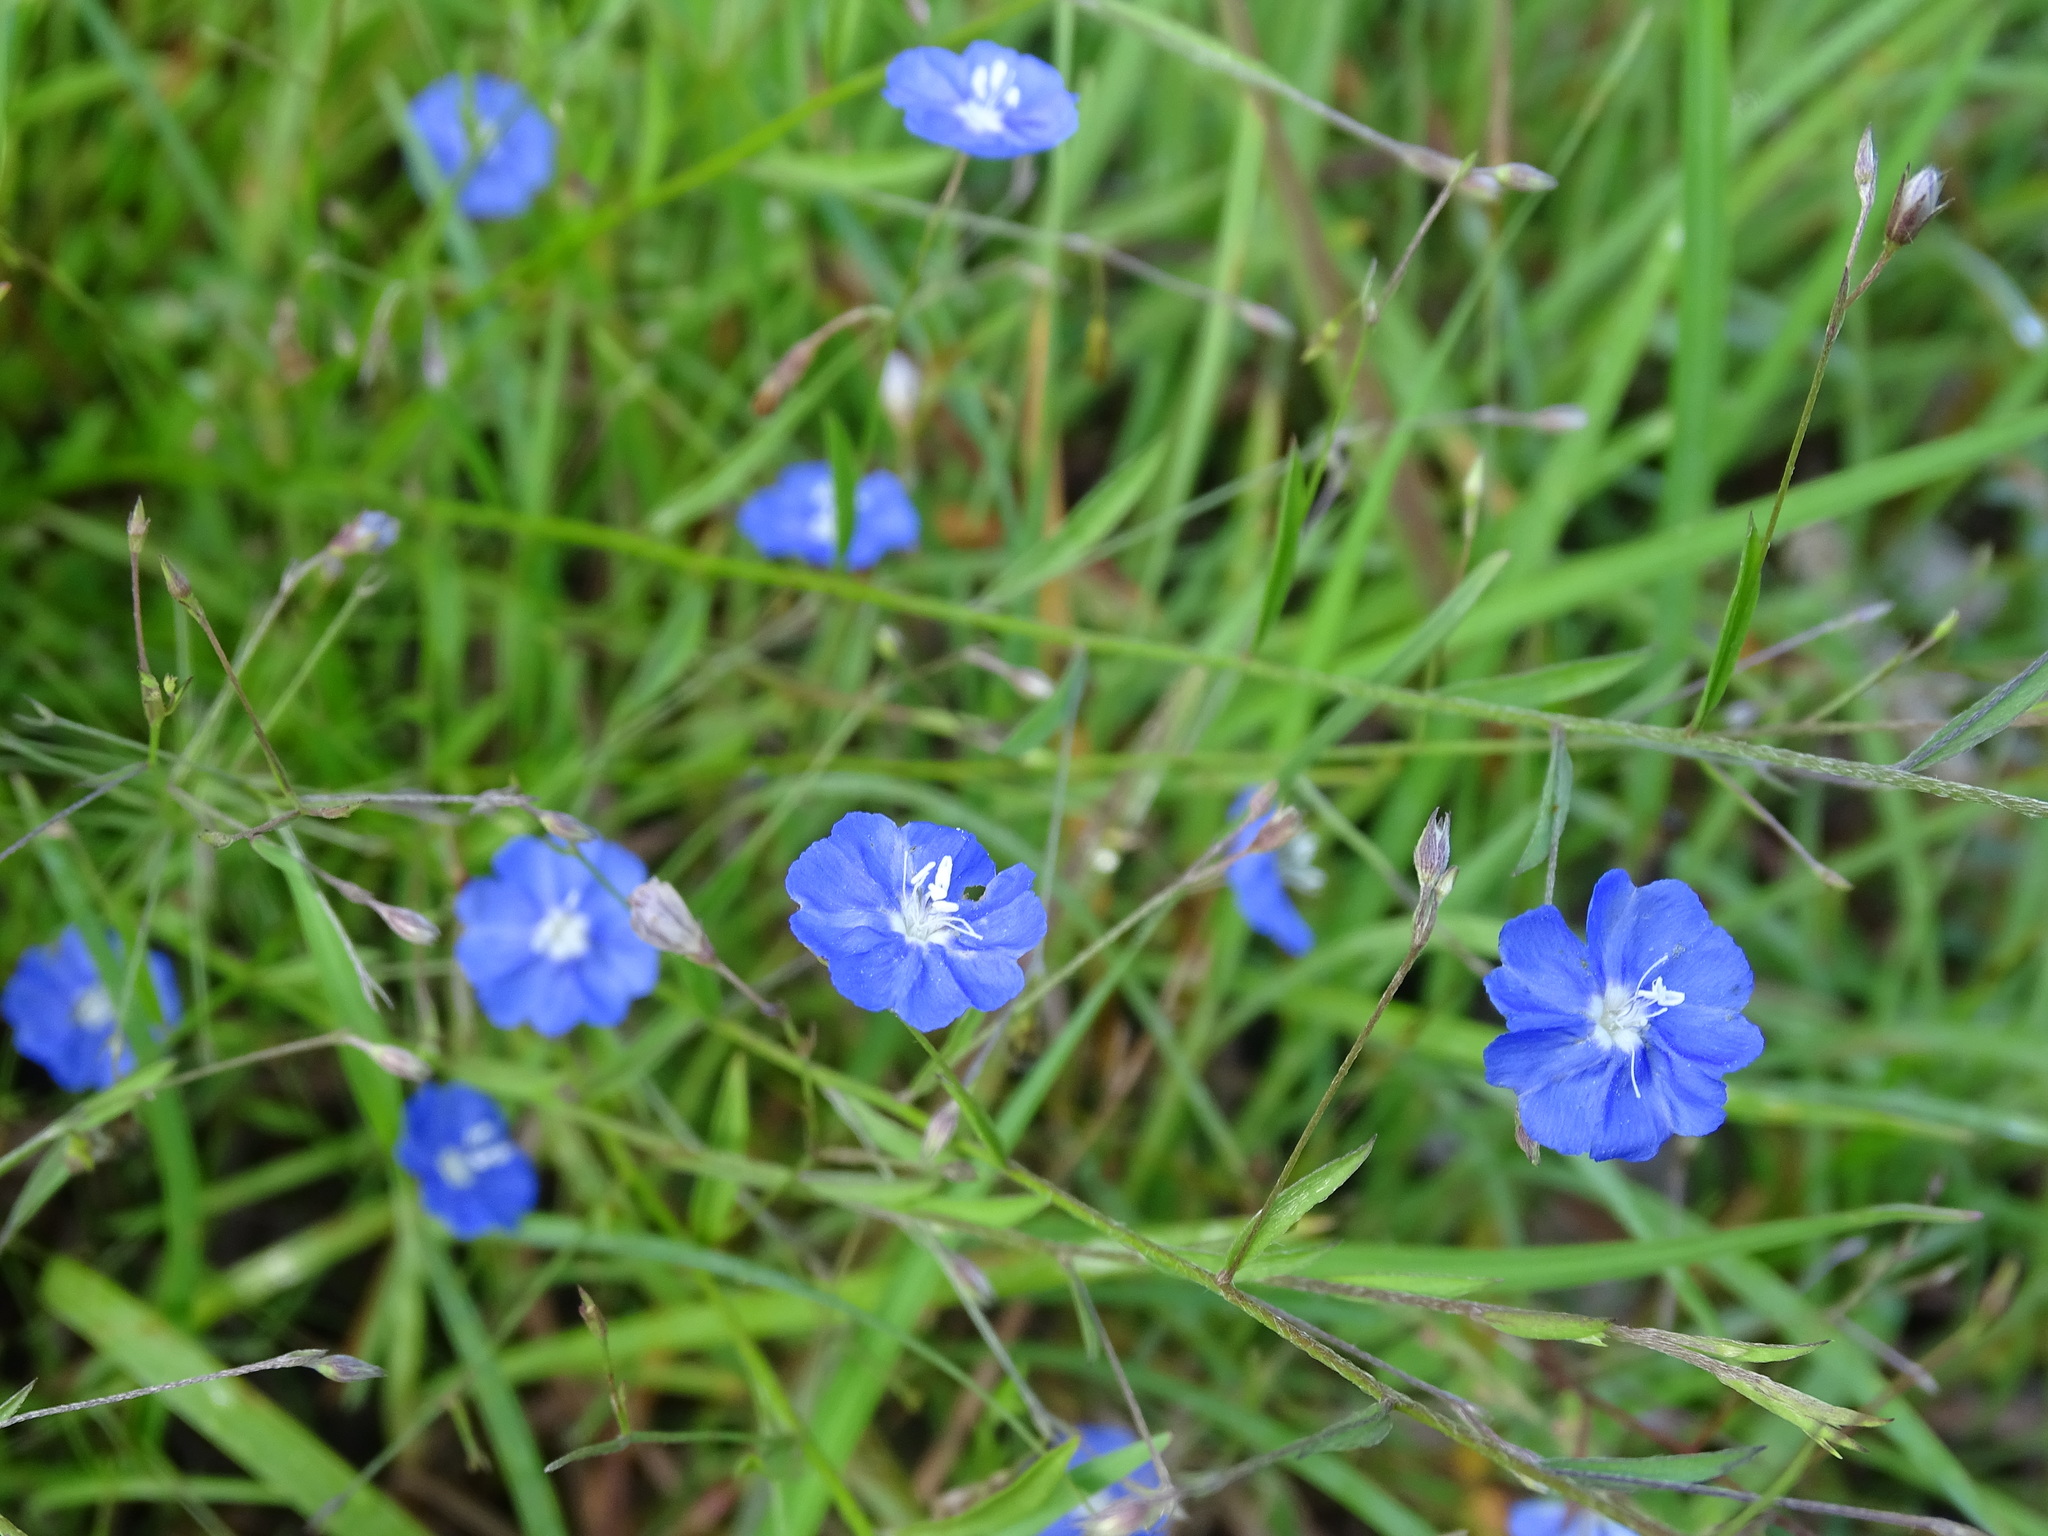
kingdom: Plantae
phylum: Tracheophyta
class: Magnoliopsida
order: Solanales
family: Convolvulaceae
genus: Evolvulus
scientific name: Evolvulus alsinoides
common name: Slender dwarf morning-glory
